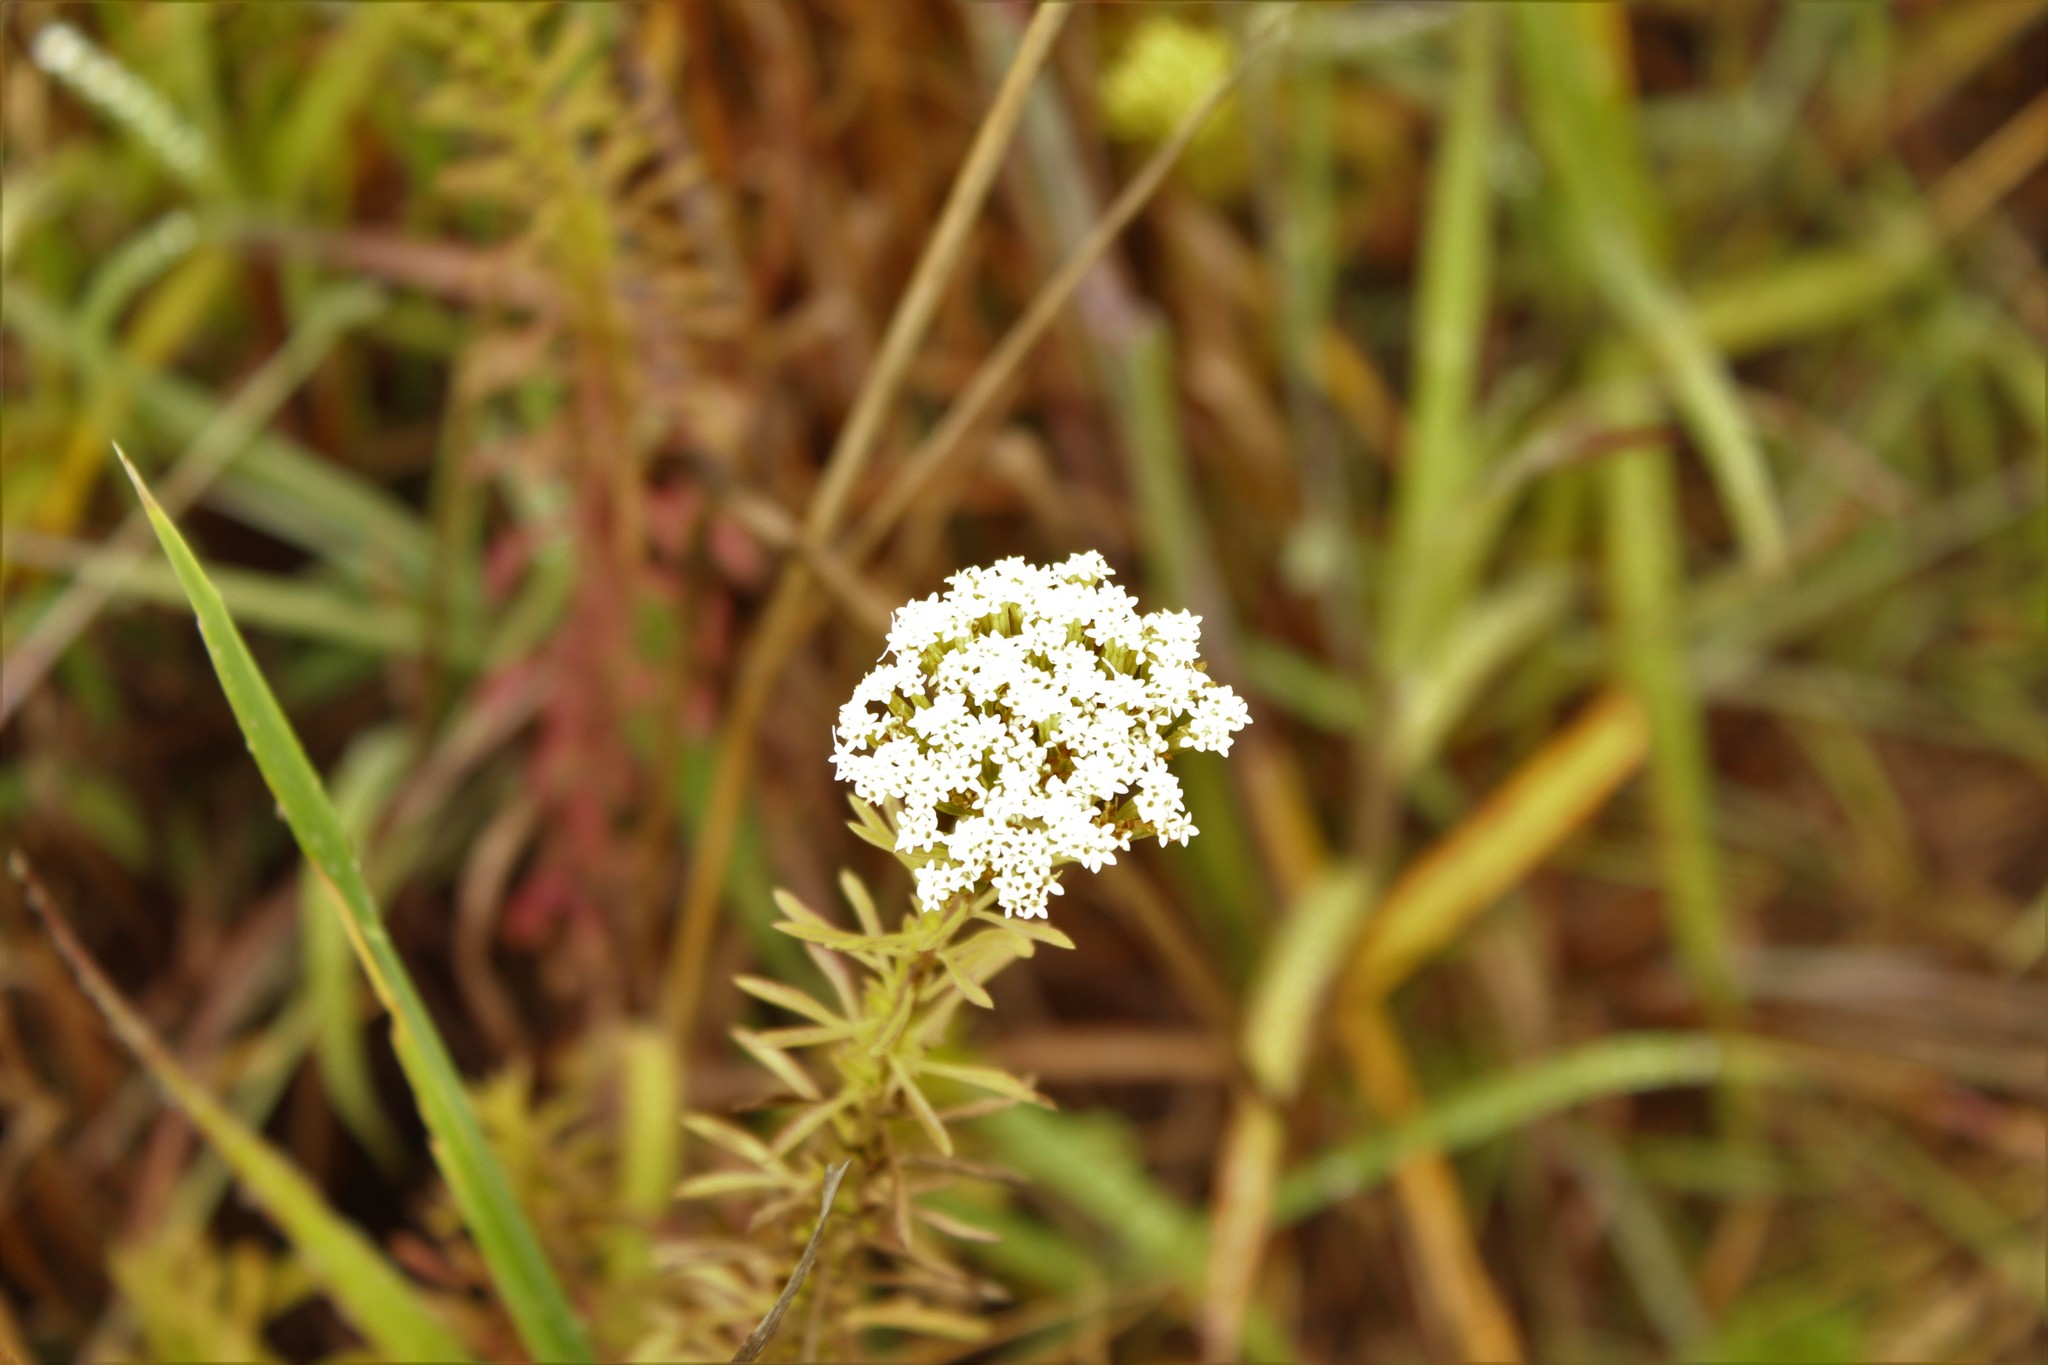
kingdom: Plantae
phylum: Tracheophyta
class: Magnoliopsida
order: Asterales
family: Asteraceae
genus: Stevia
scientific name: Stevia serrata
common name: Sawtooth candyleaf
